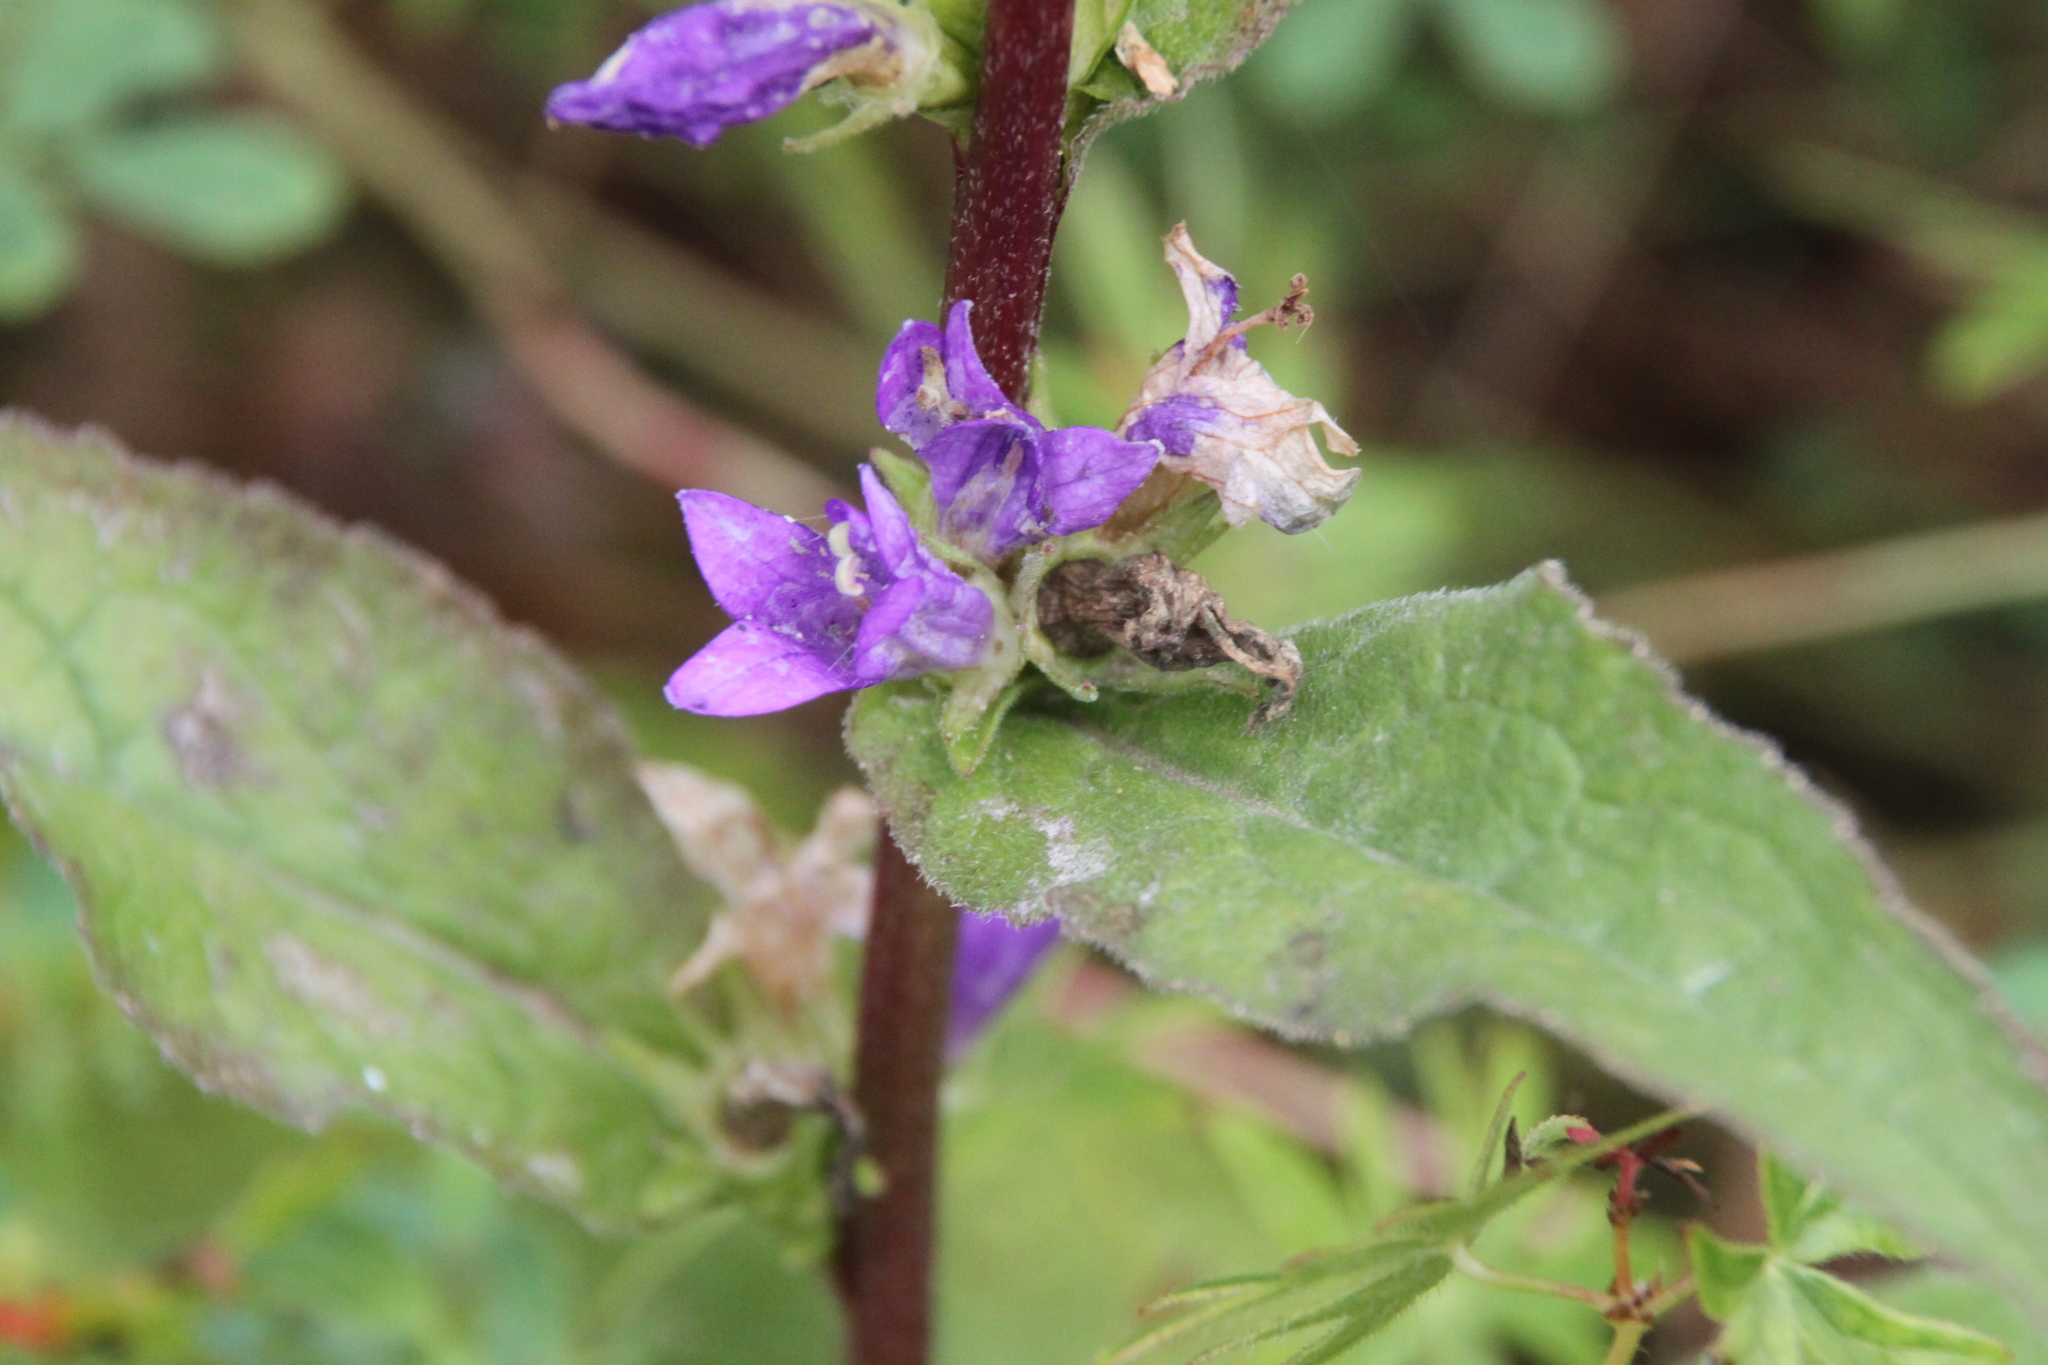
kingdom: Plantae
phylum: Tracheophyta
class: Magnoliopsida
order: Asterales
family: Campanulaceae
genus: Campanula
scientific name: Campanula glomerata
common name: Clustered bellflower
